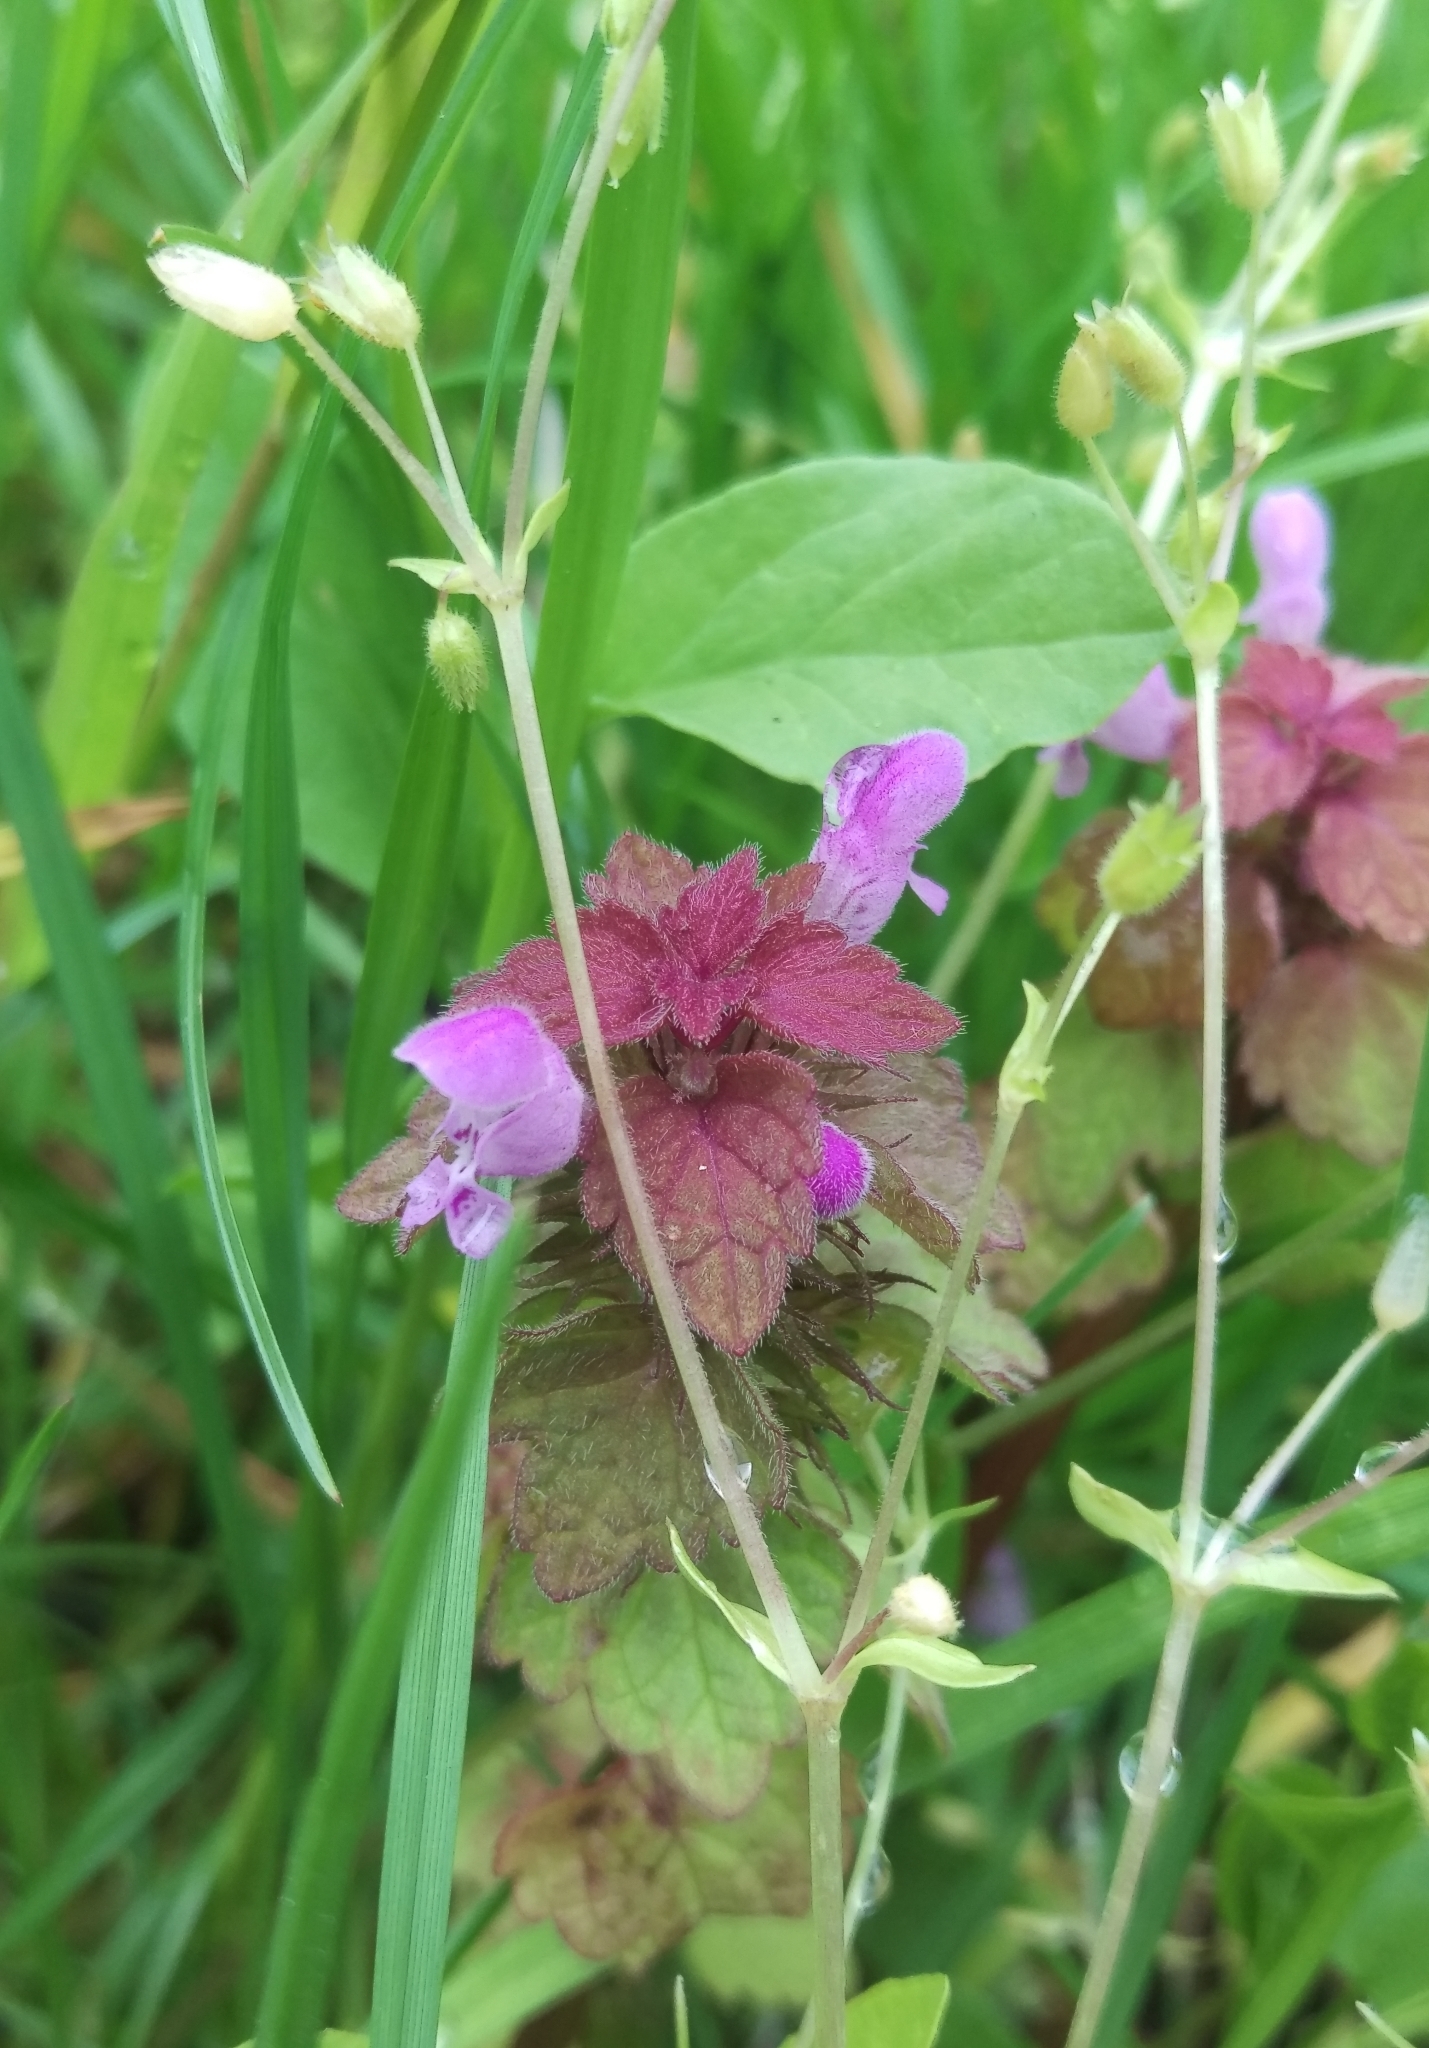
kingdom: Plantae
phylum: Tracheophyta
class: Magnoliopsida
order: Lamiales
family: Lamiaceae
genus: Lamium
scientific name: Lamium purpureum
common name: Red dead-nettle
